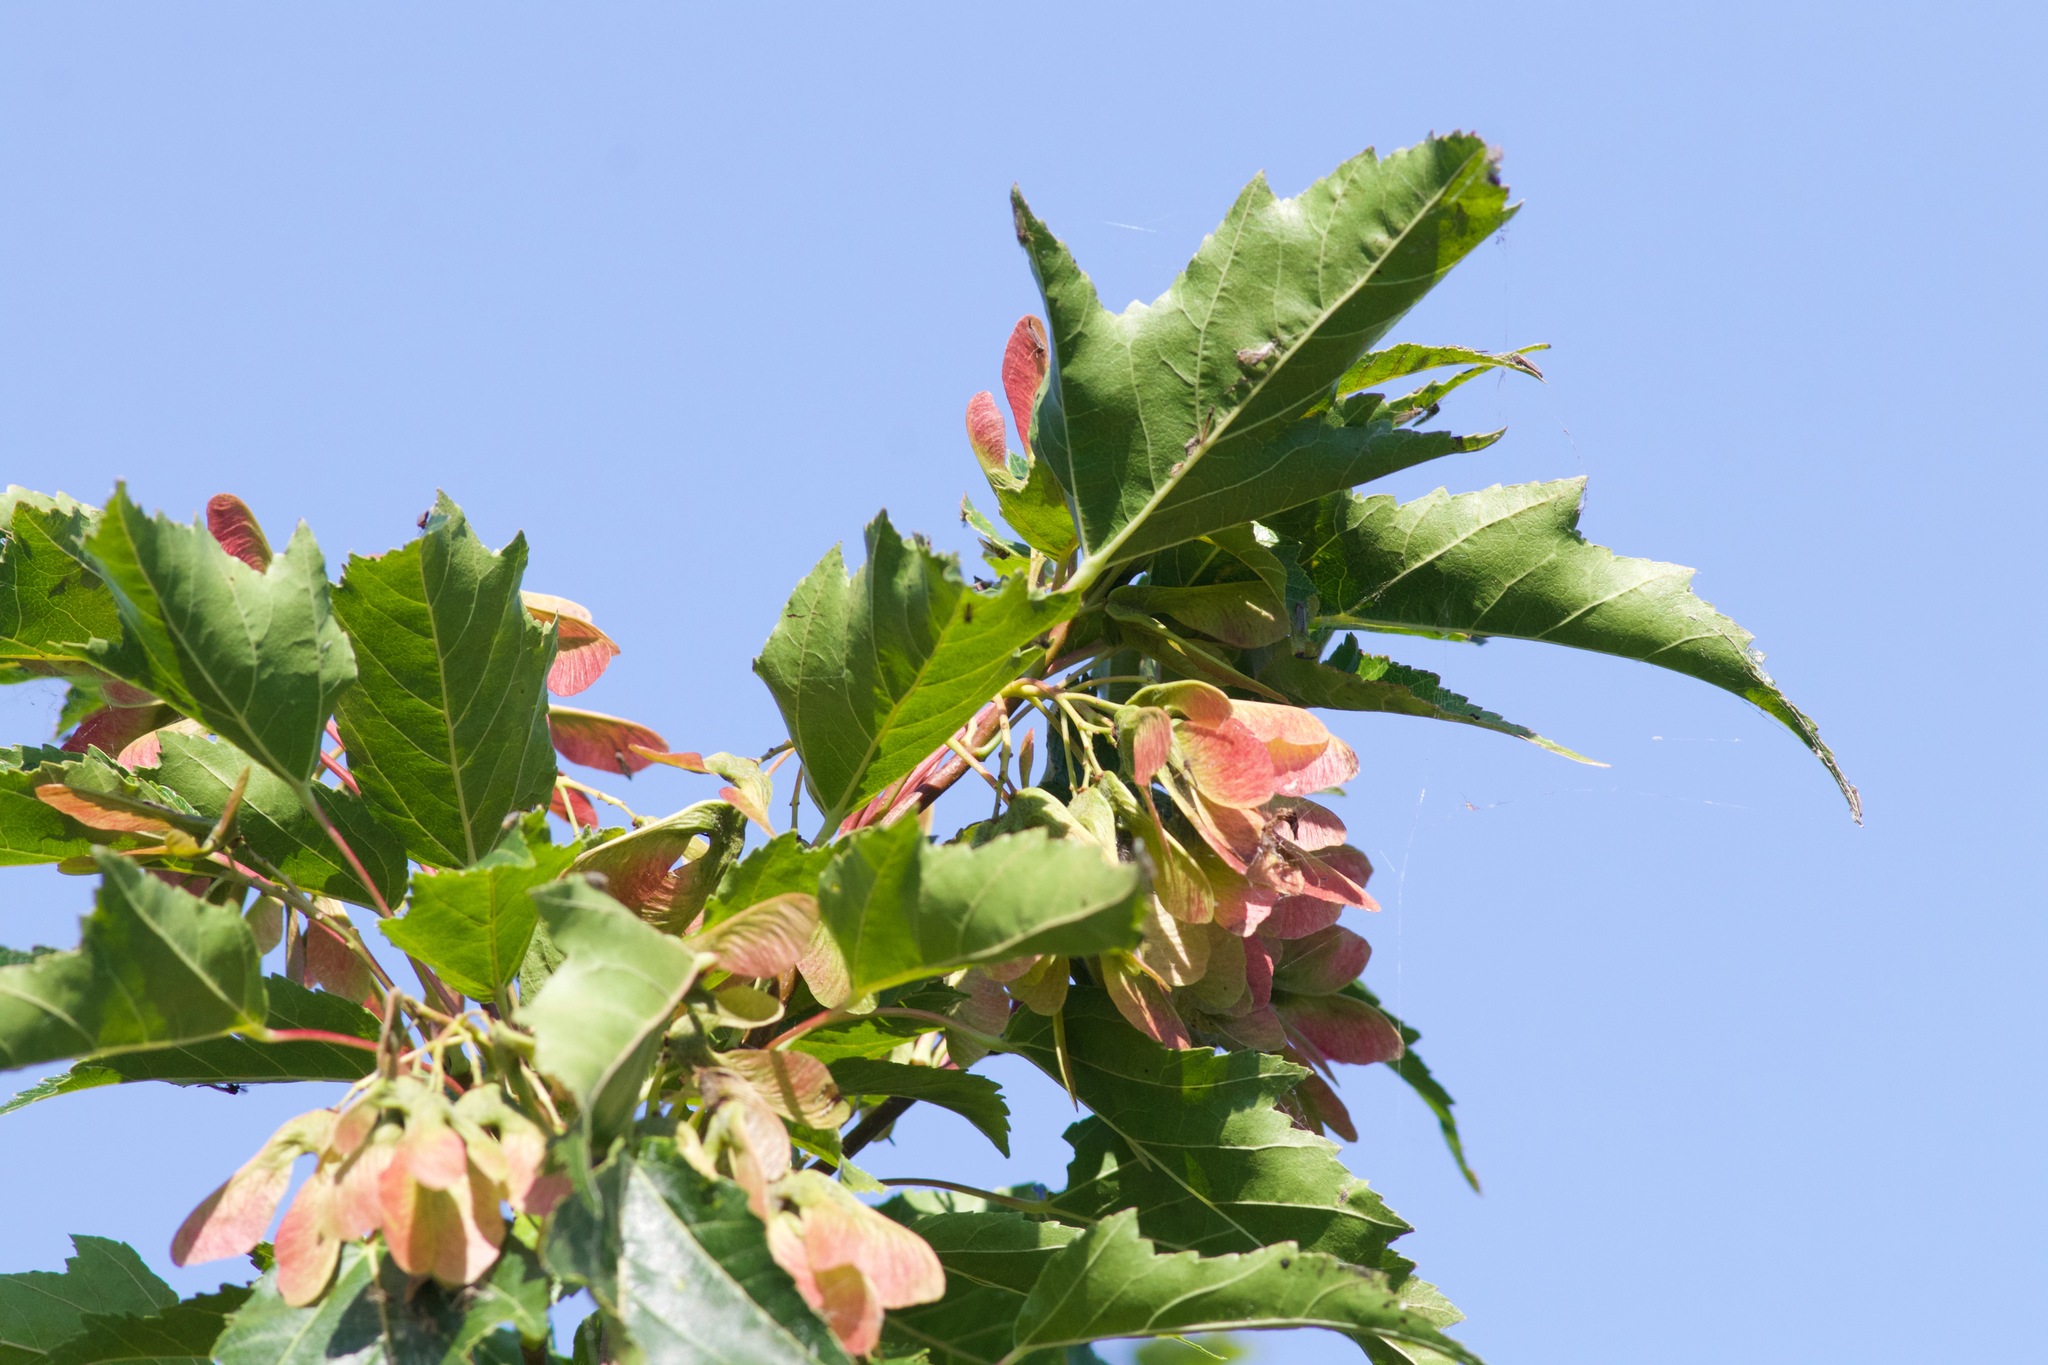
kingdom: Plantae
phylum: Tracheophyta
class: Magnoliopsida
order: Sapindales
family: Sapindaceae
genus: Acer
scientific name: Acer tataricum
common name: Tartar maple
